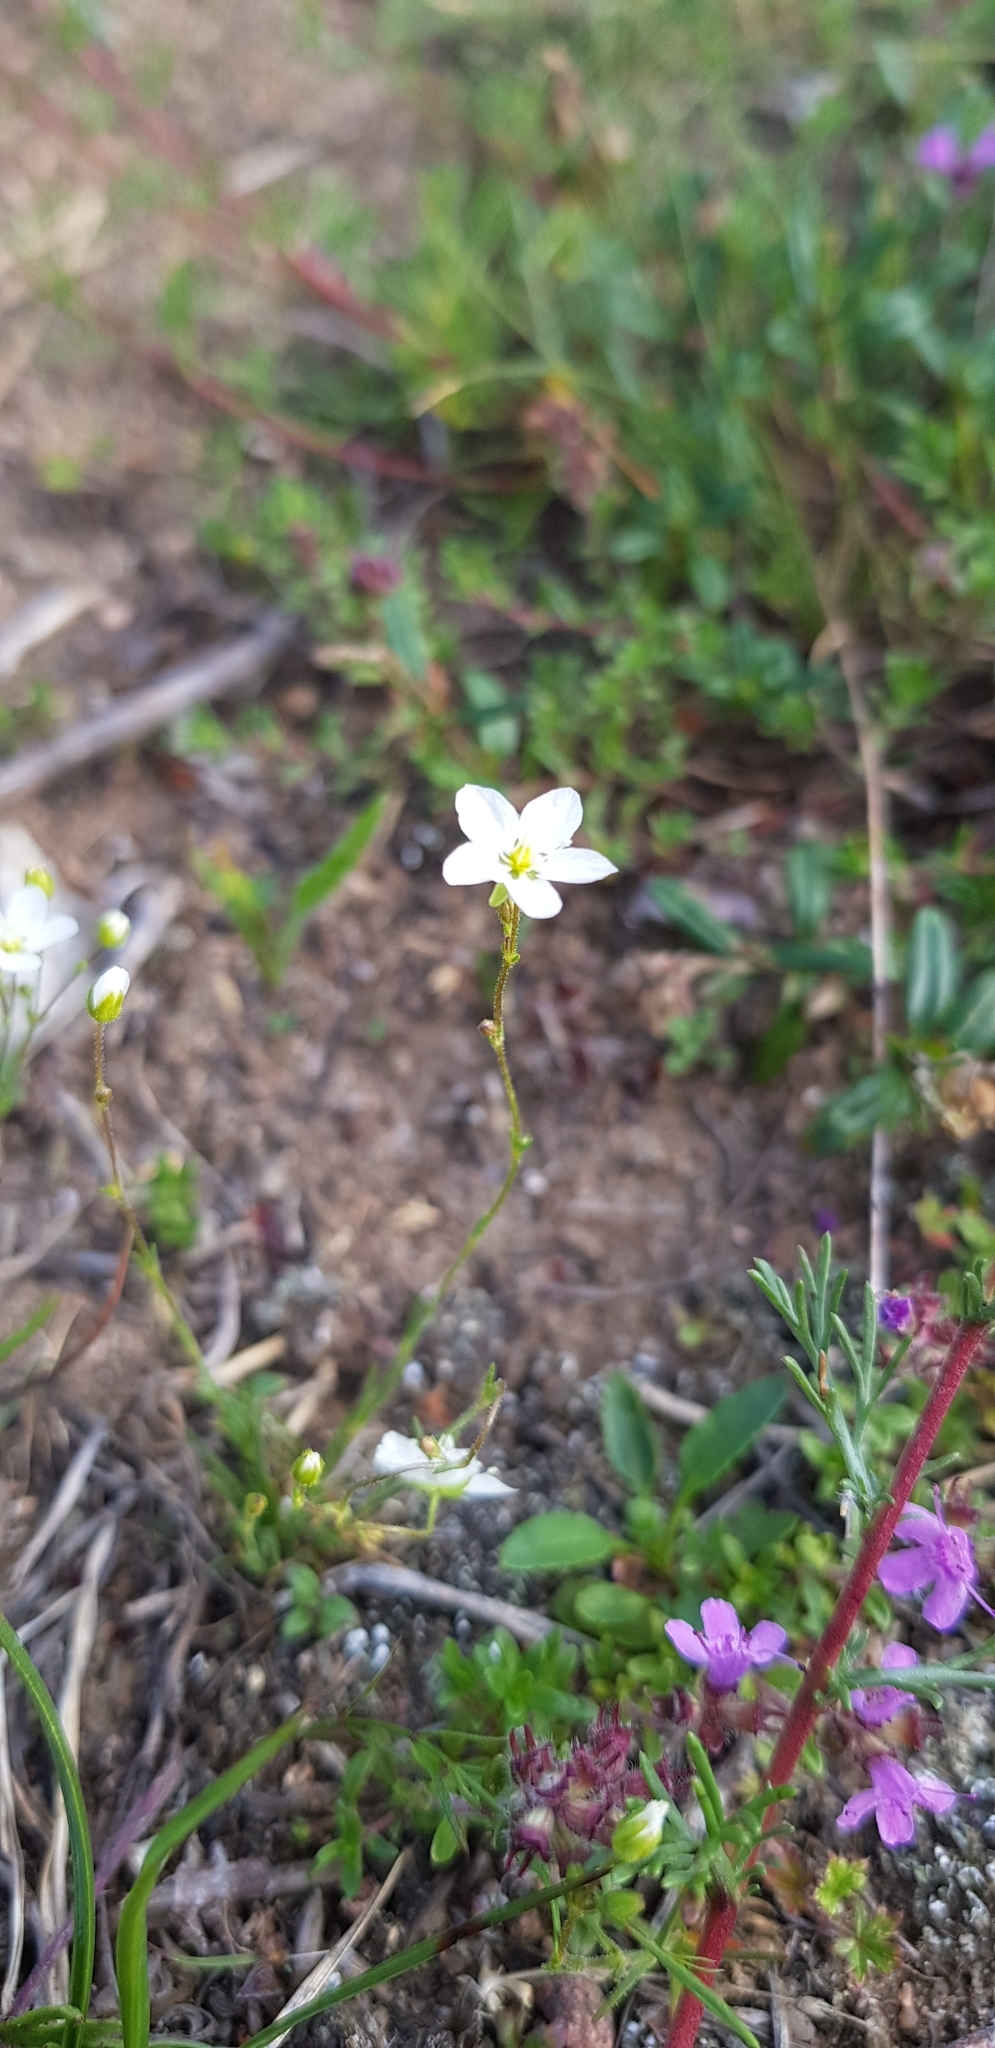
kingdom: Plantae
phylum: Tracheophyta
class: Magnoliopsida
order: Malpighiales
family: Linaceae
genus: Linum
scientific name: Linum catharticum
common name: Fairy flax
